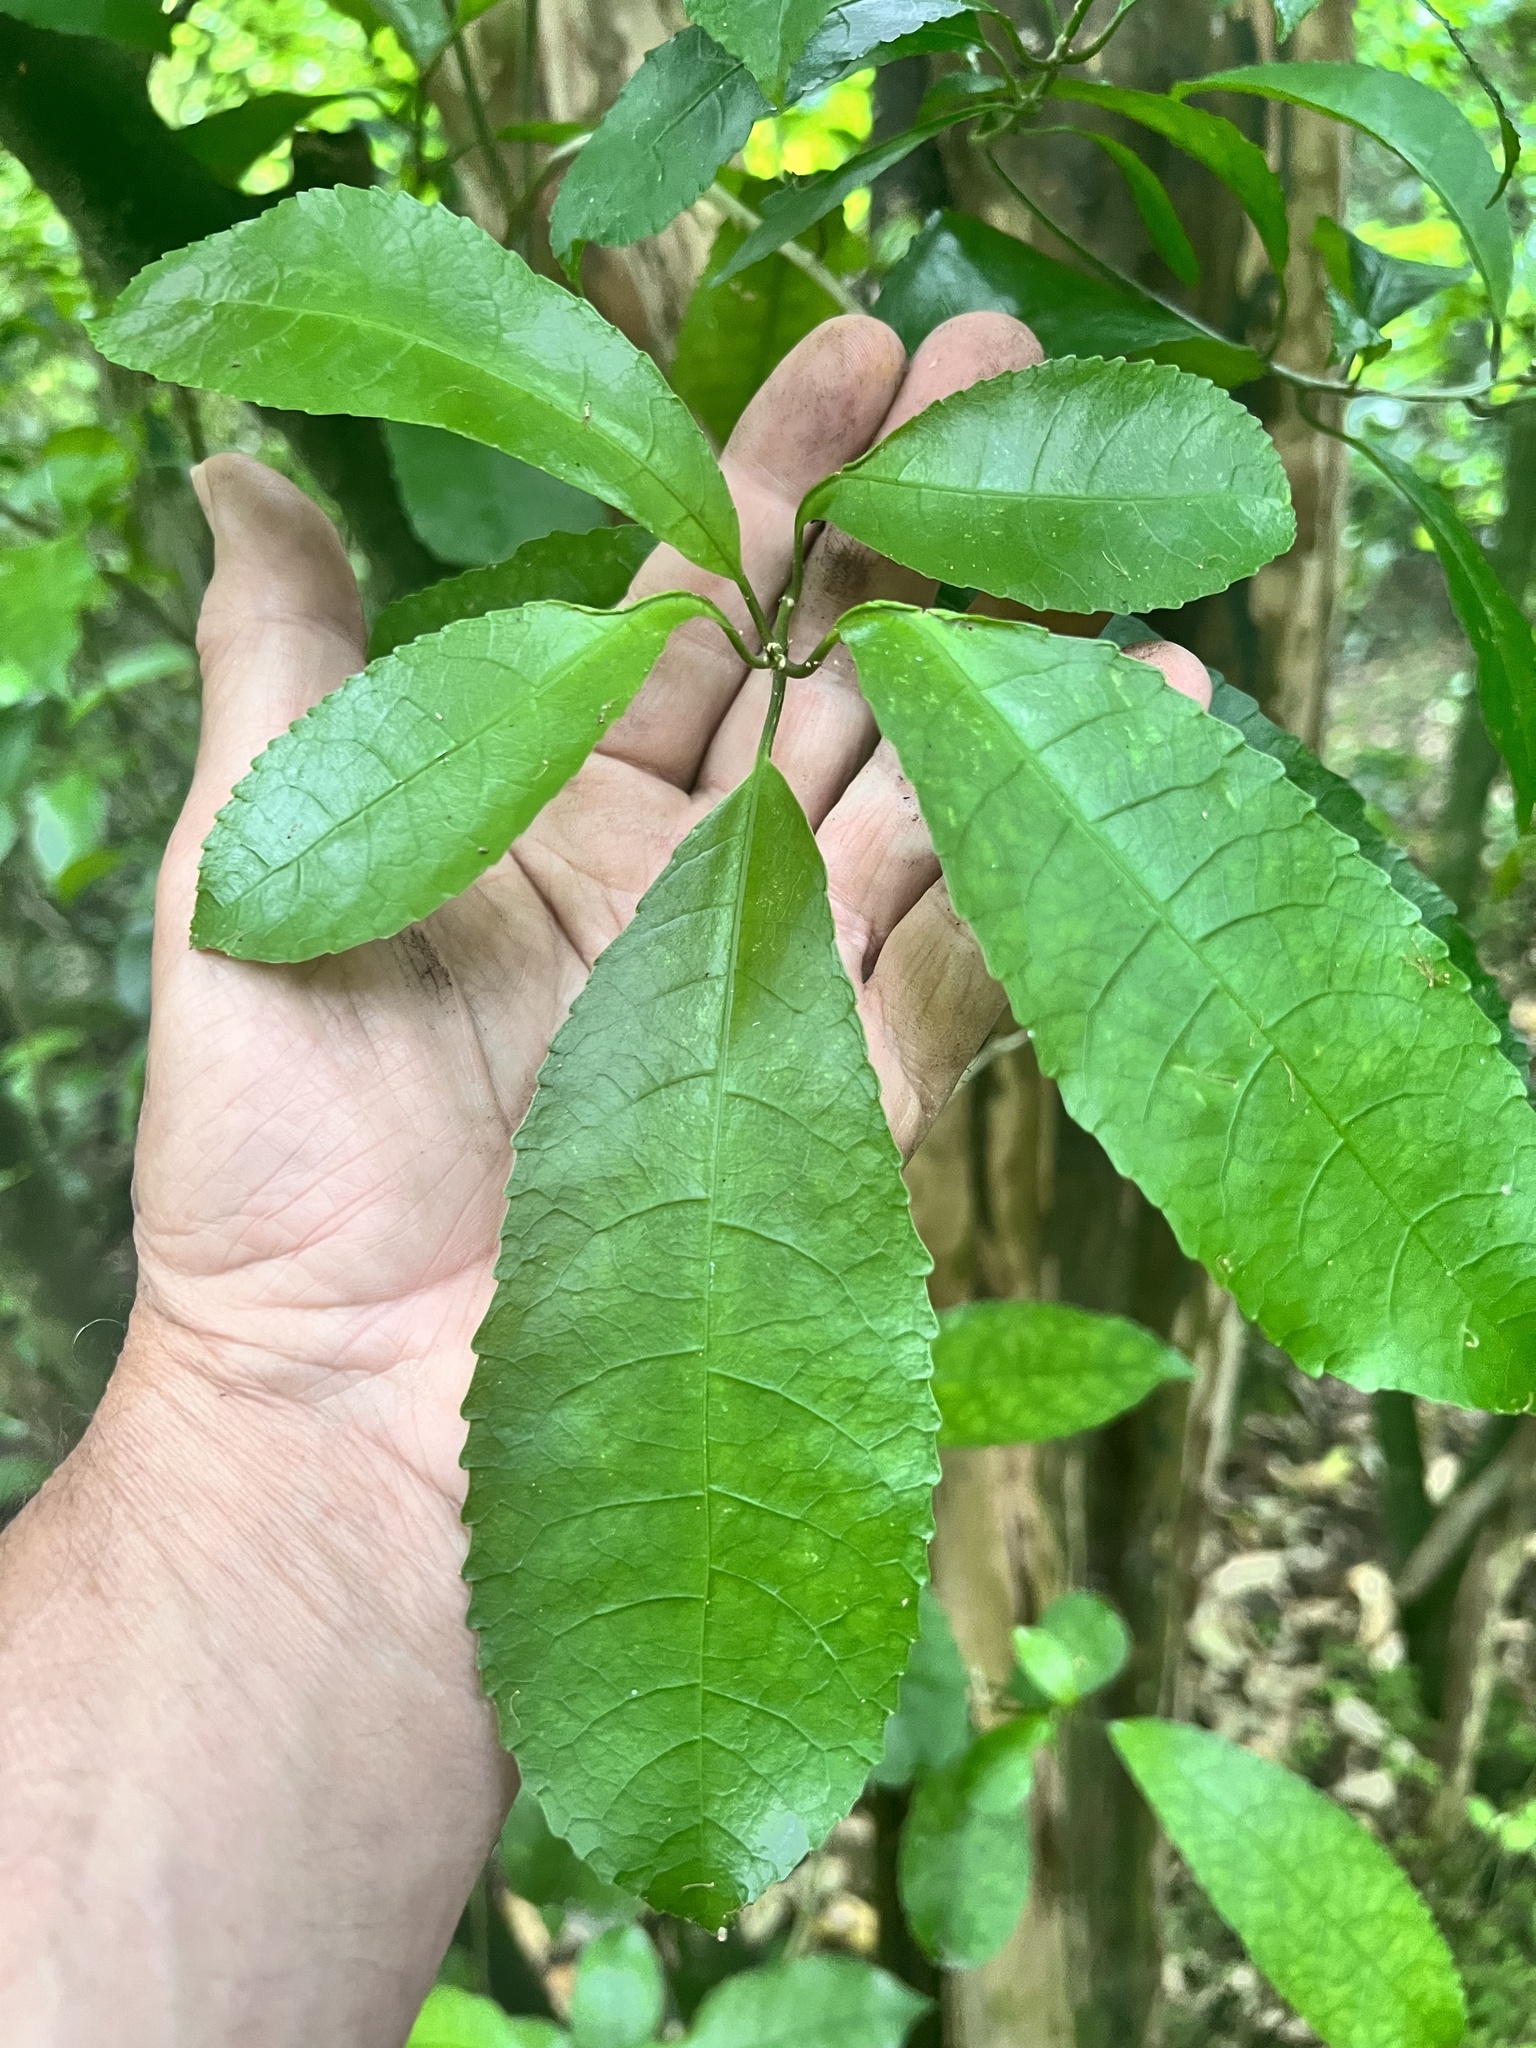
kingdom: Plantae
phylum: Tracheophyta
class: Magnoliopsida
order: Malpighiales
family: Violaceae
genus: Melicytus
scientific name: Melicytus ramiflorus
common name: Mahoe
